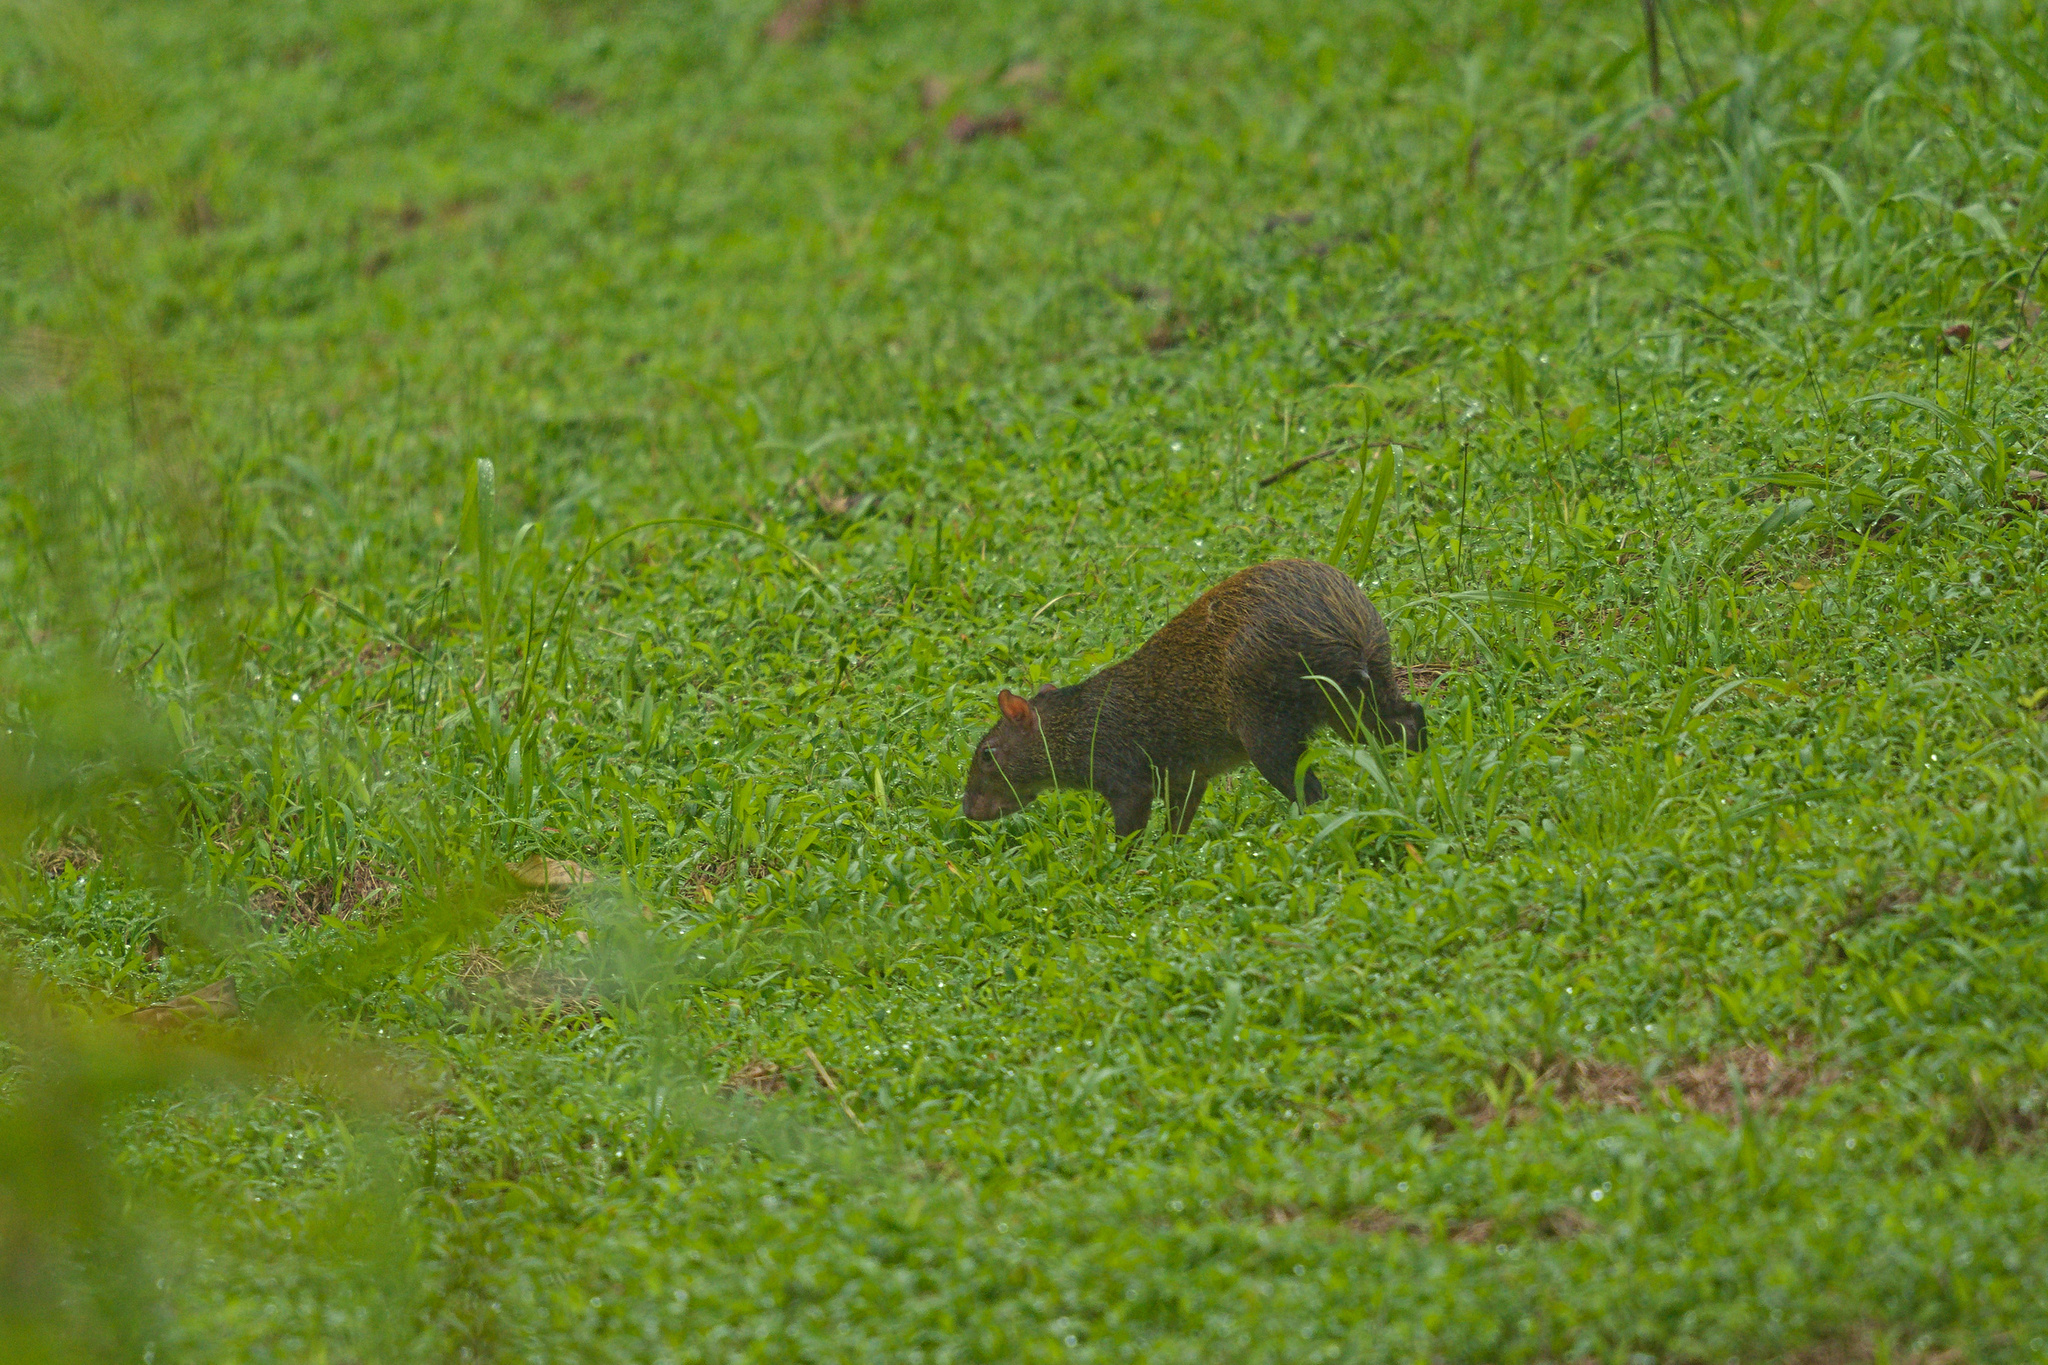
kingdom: Animalia
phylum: Chordata
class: Mammalia
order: Rodentia
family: Dasyproctidae
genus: Dasyprocta
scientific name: Dasyprocta punctata
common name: Central american agouti
